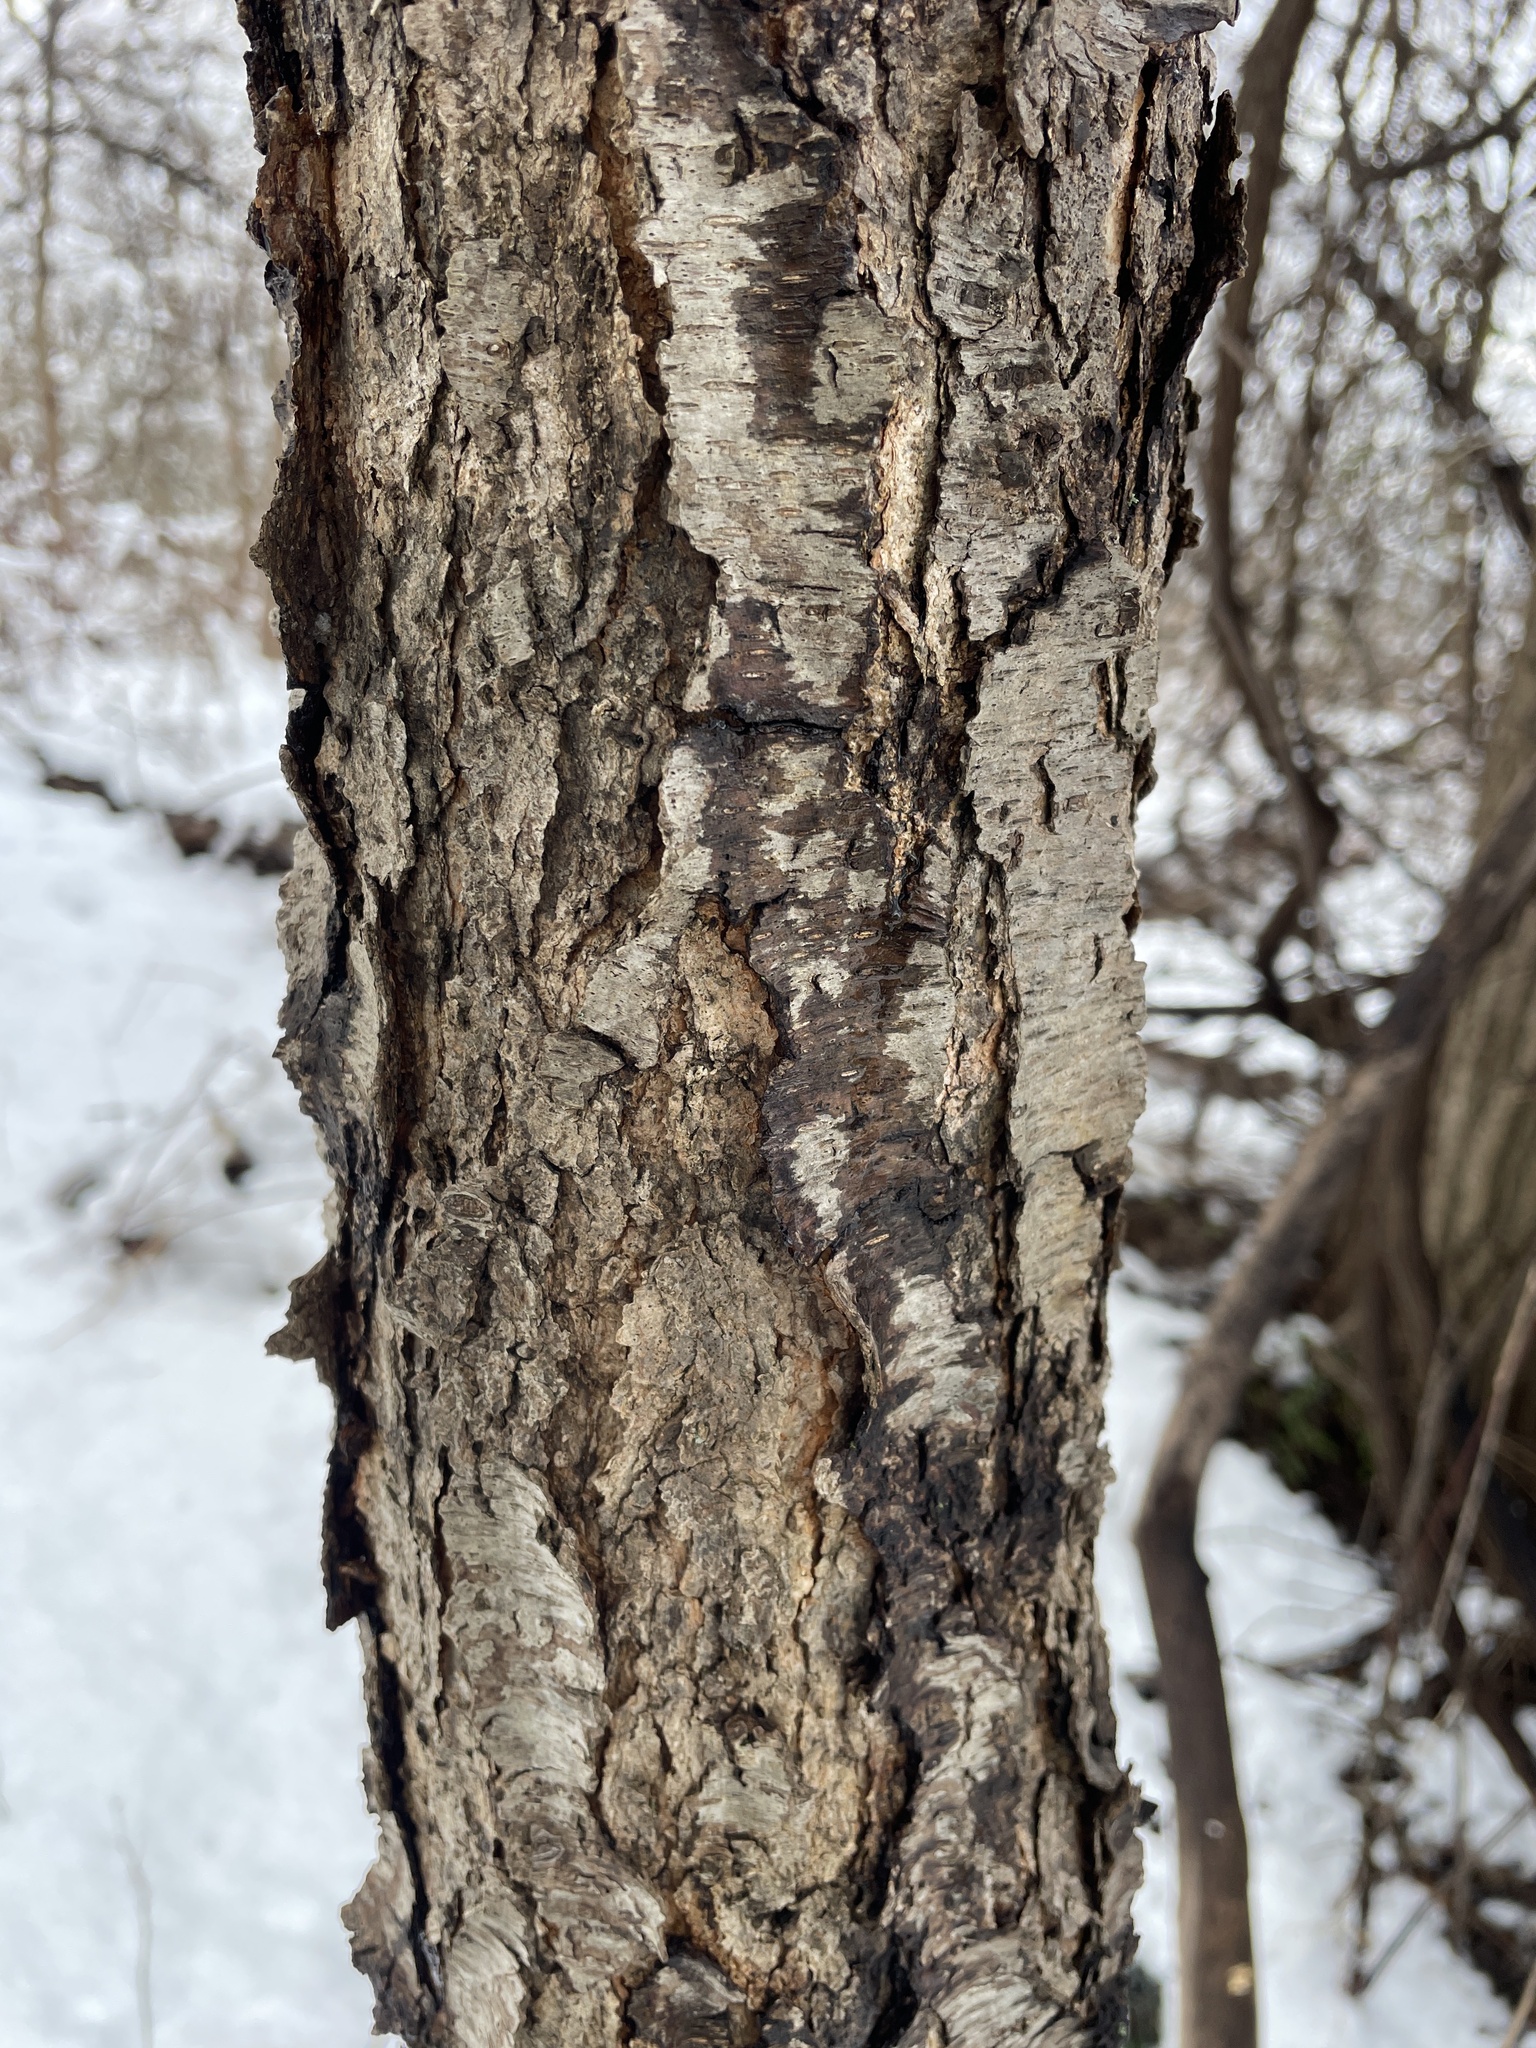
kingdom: Plantae
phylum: Tracheophyta
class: Magnoliopsida
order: Rosales
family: Rosaceae
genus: Prunus
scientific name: Prunus serotina
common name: Black cherry
